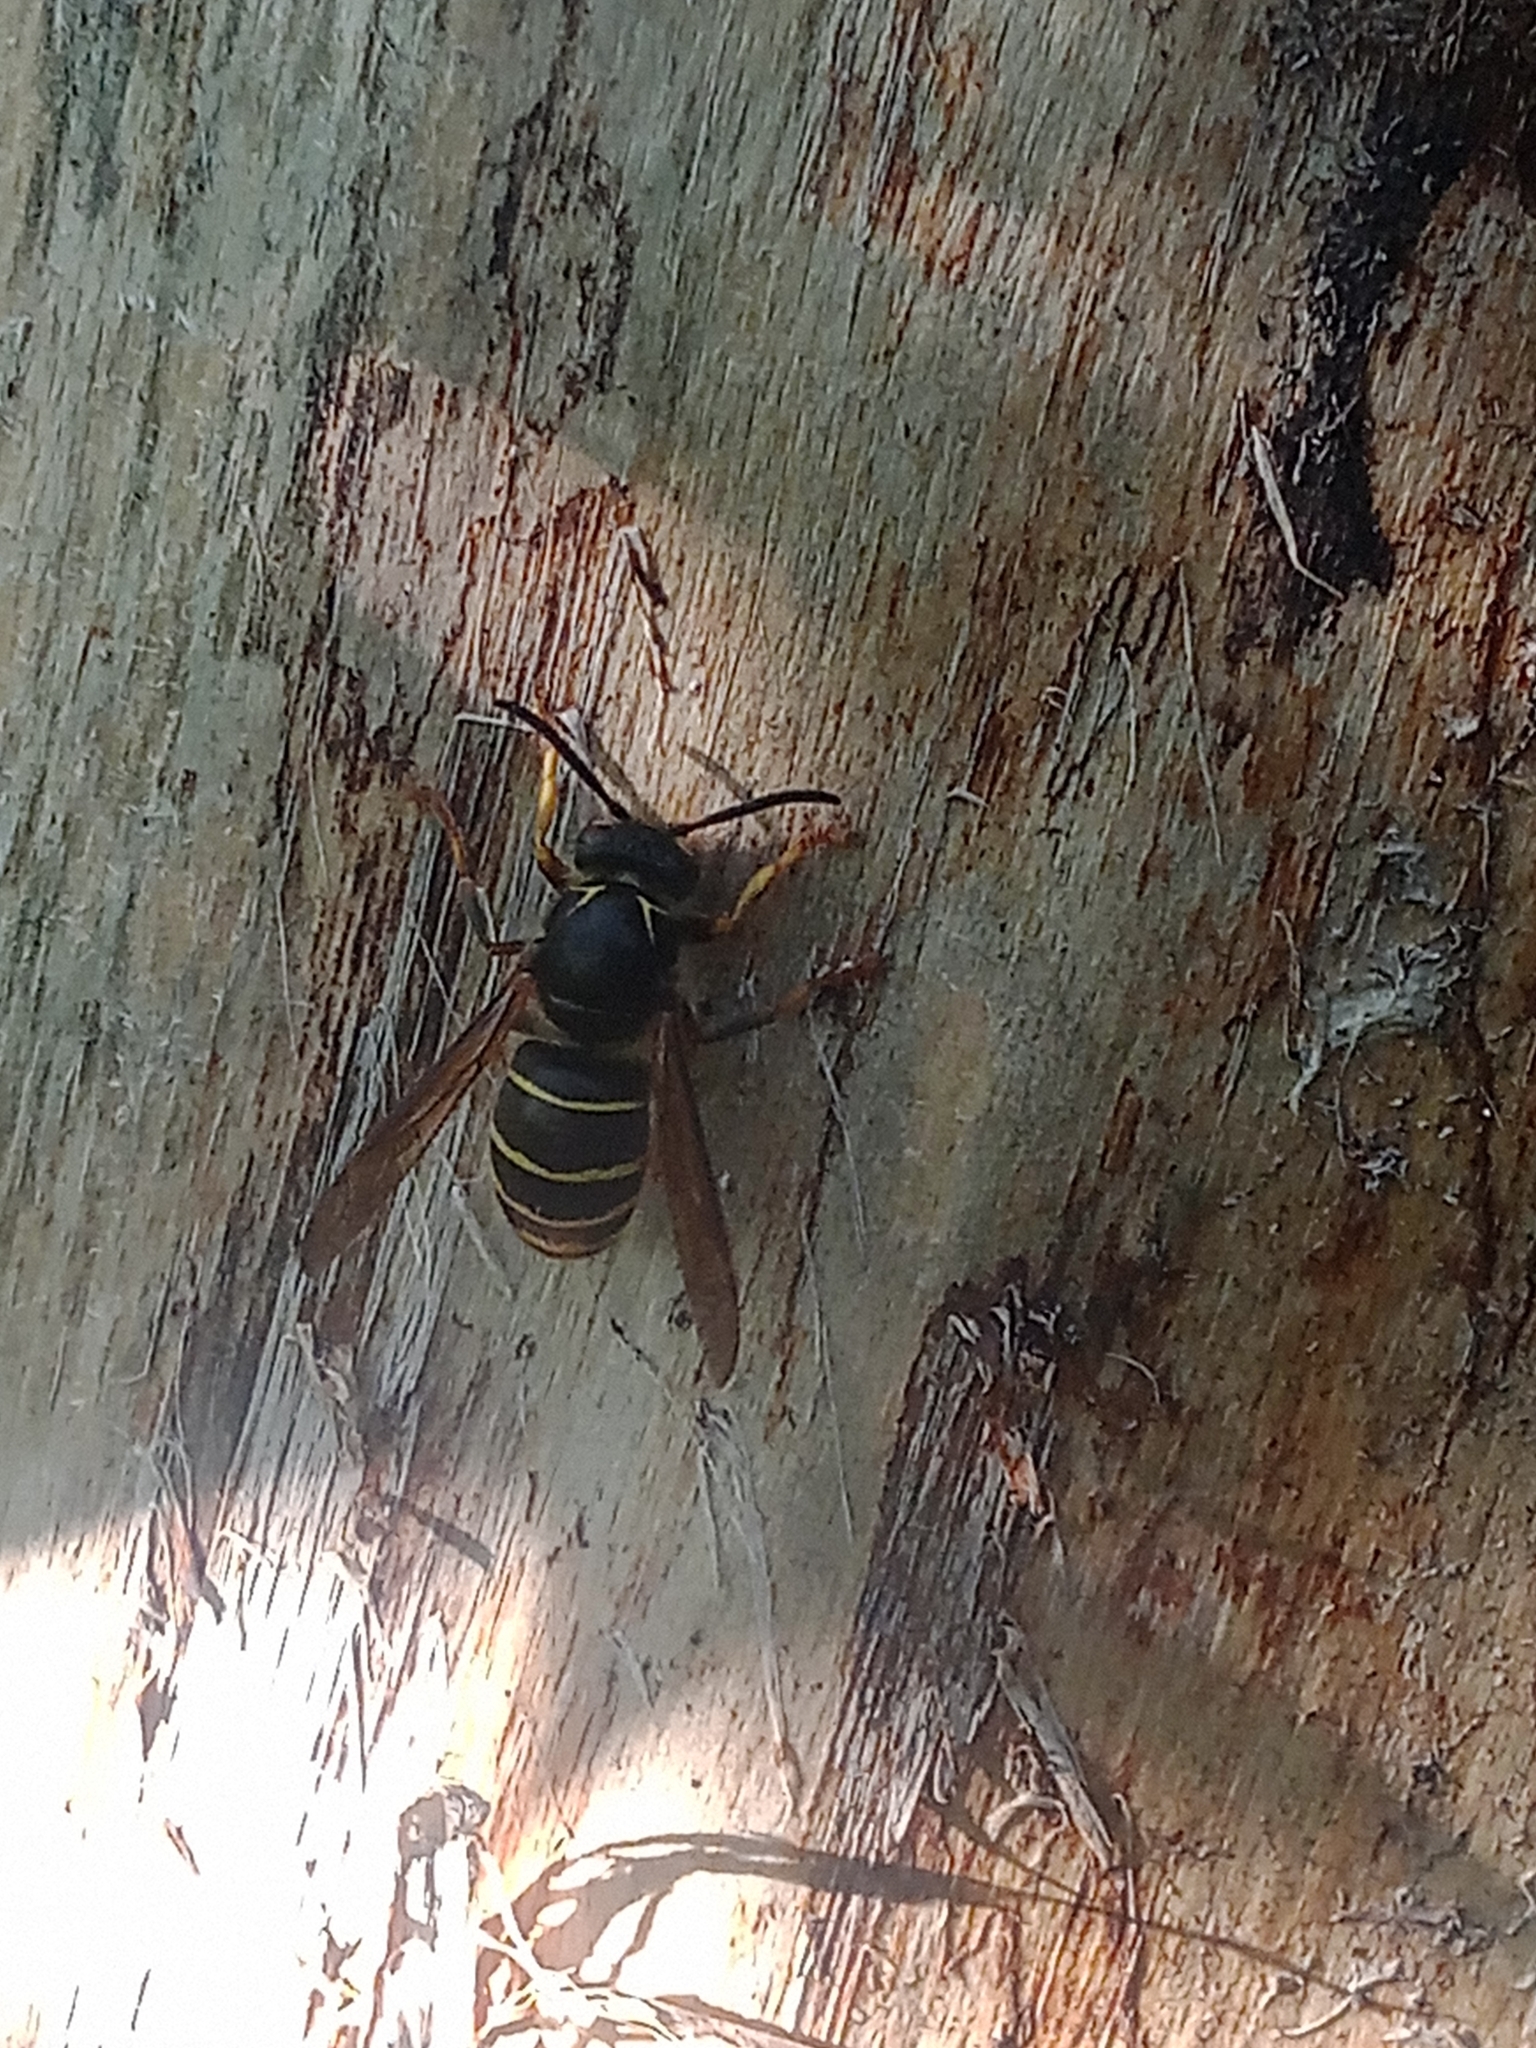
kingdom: Animalia
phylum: Arthropoda
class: Insecta
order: Hymenoptera
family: Vespidae
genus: Dolichovespula
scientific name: Dolichovespula media
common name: Median wasp
